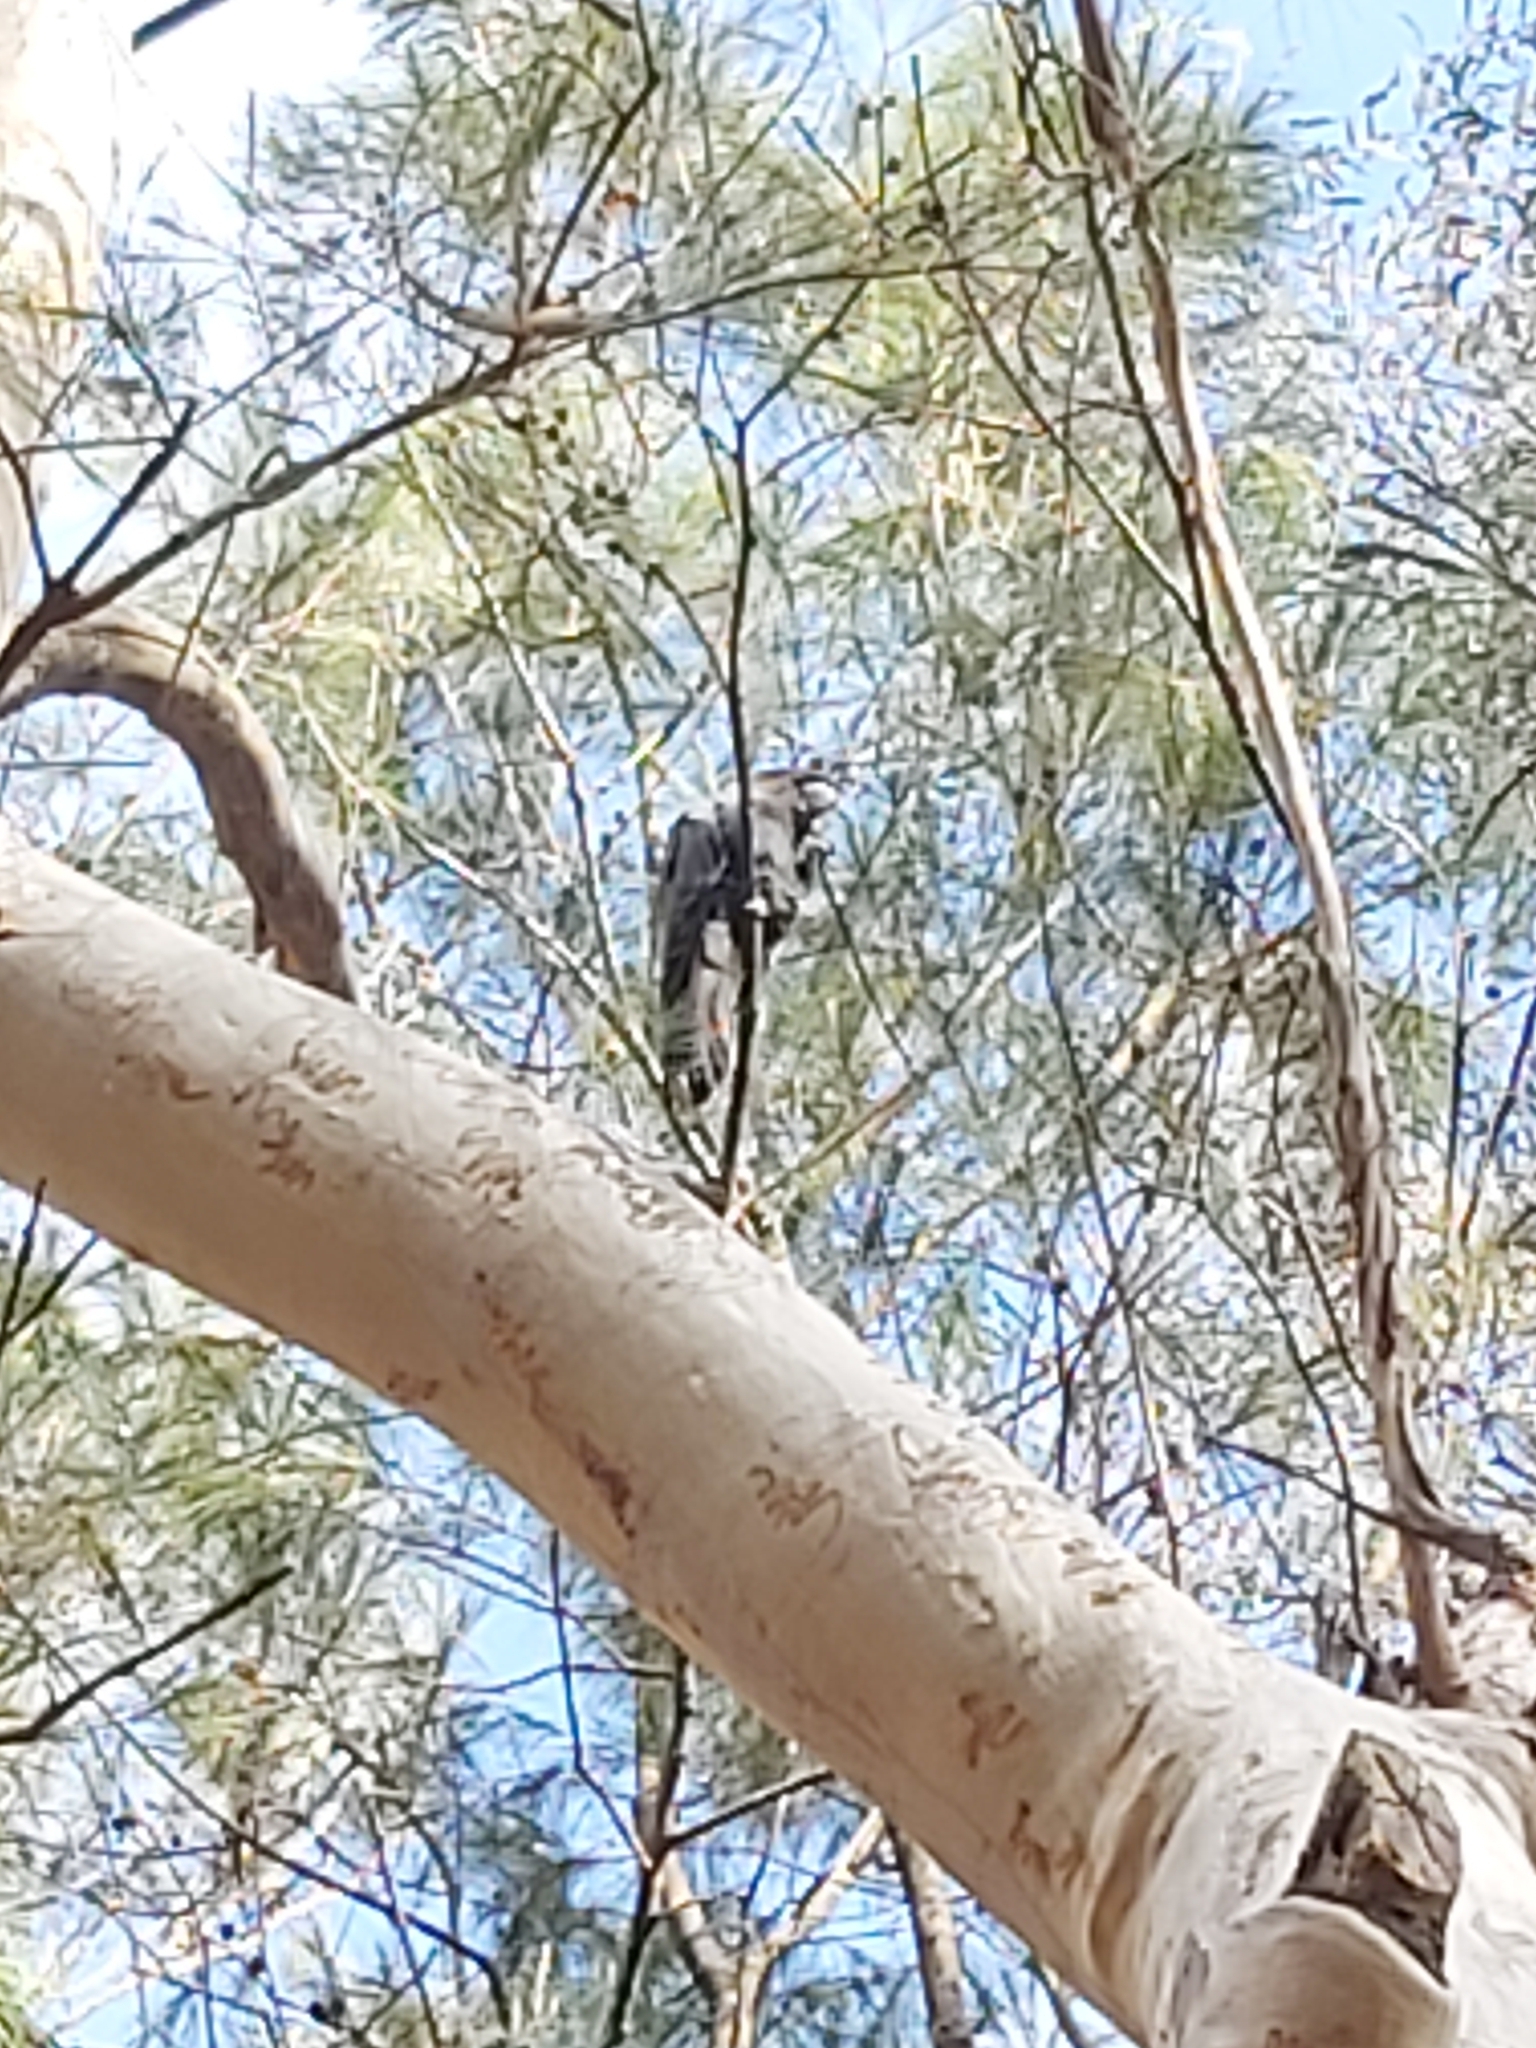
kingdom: Animalia
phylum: Chordata
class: Aves
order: Psittaciformes
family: Psittacidae
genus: Calyptorhynchus
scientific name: Calyptorhynchus lathami
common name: Glossy black cockatoo
